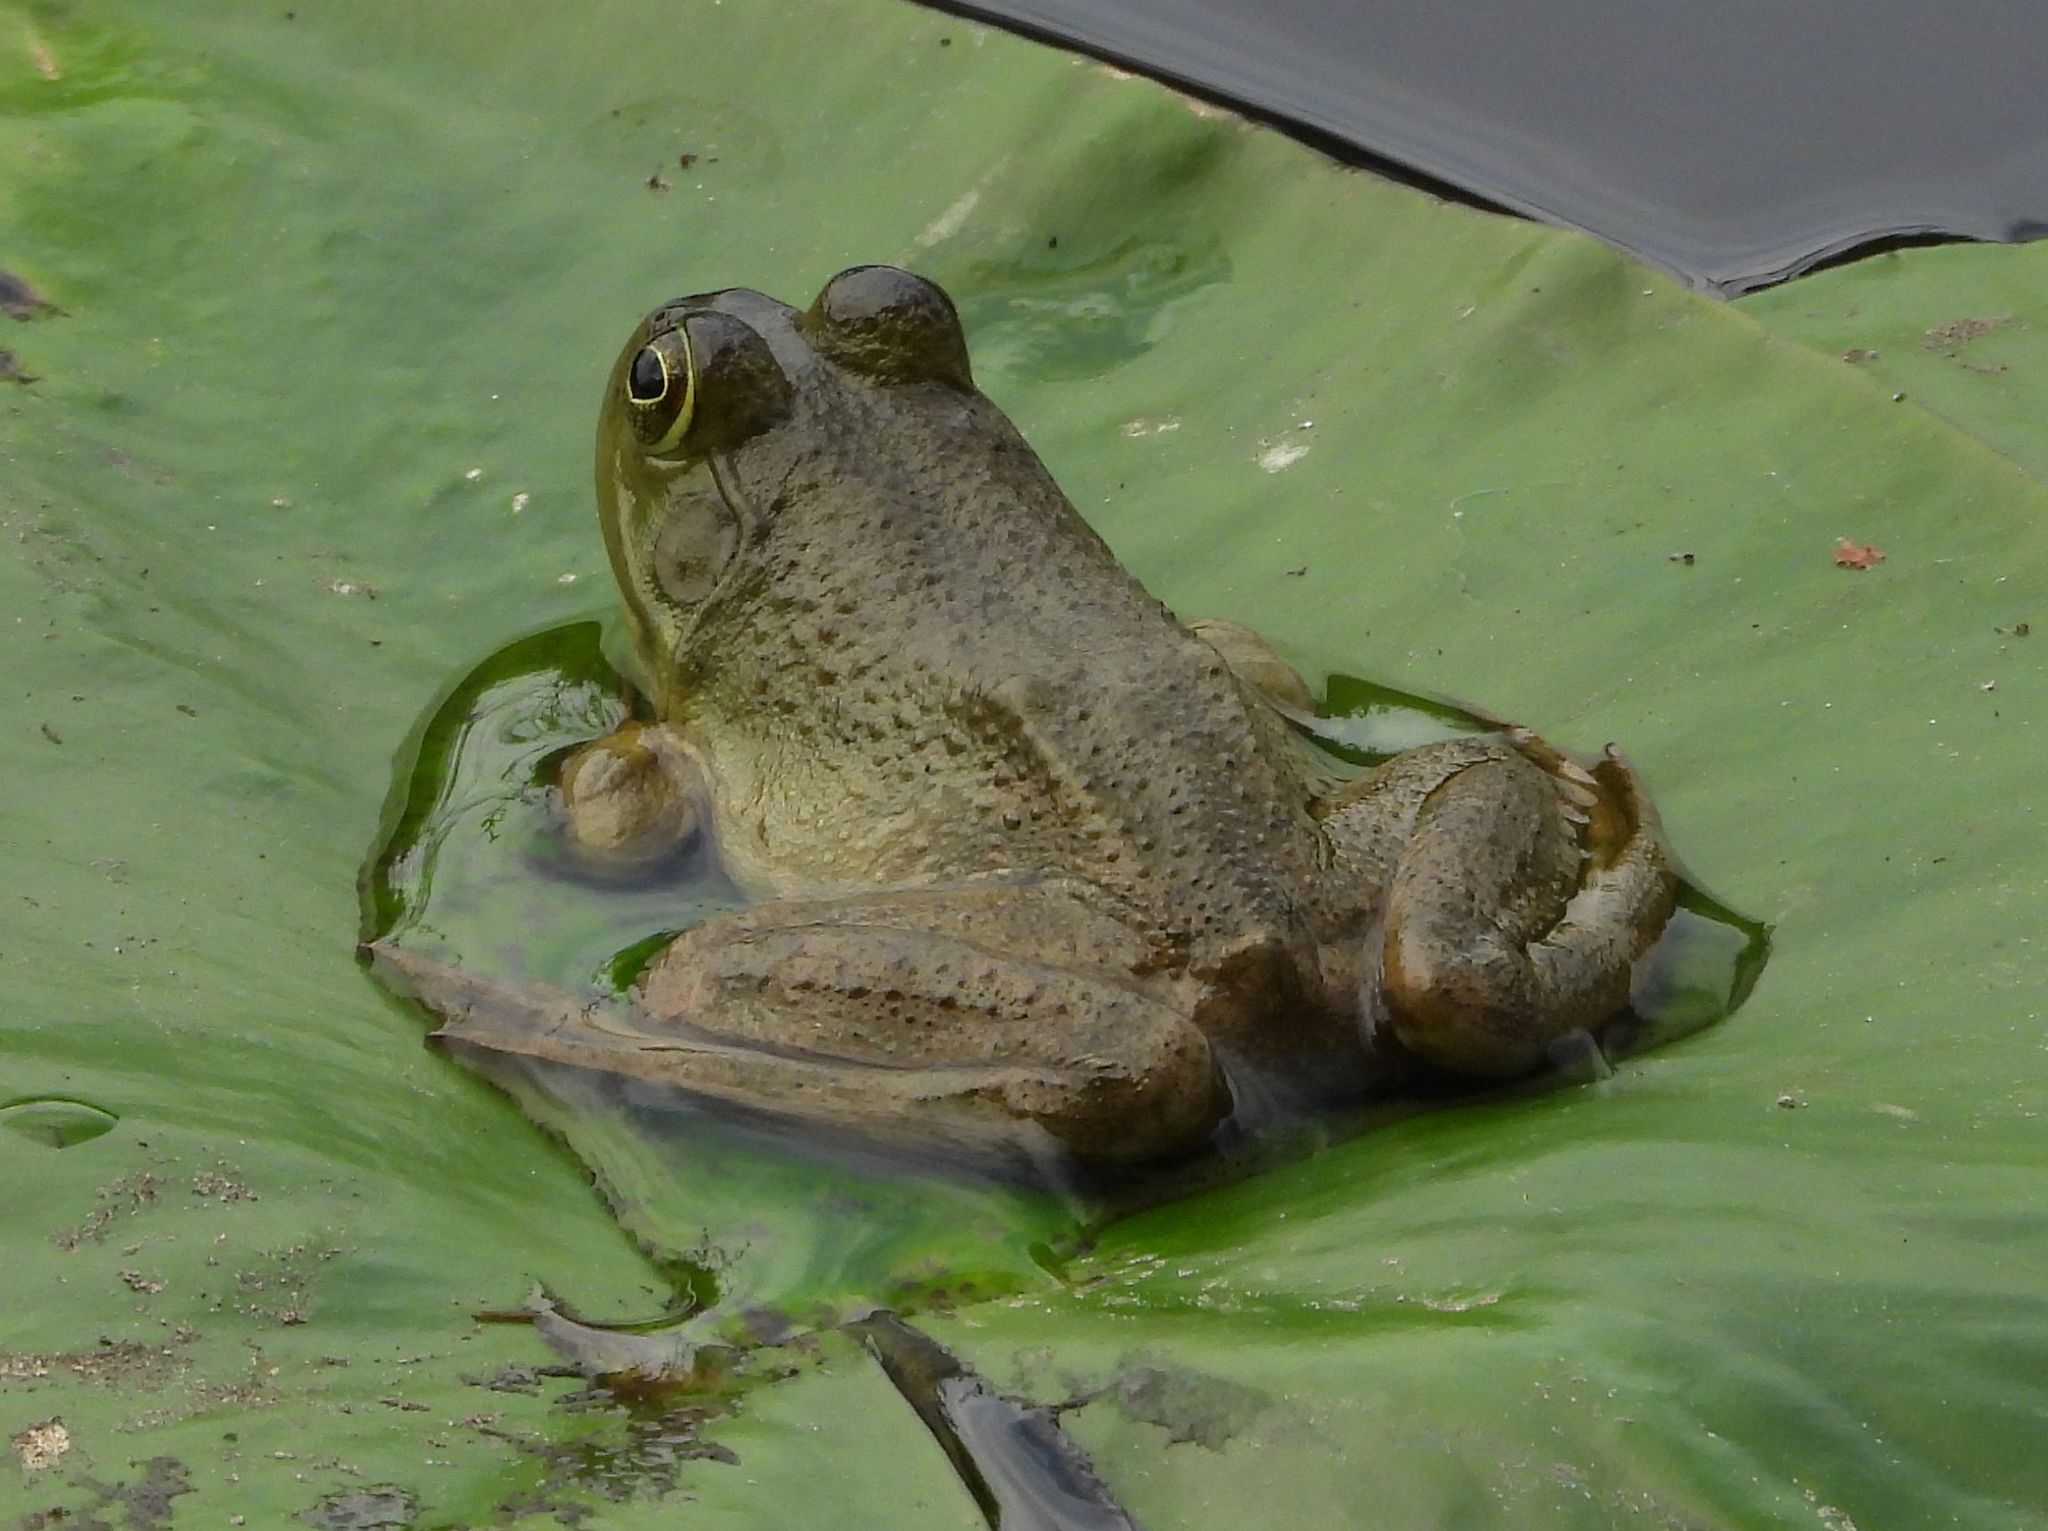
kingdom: Animalia
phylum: Chordata
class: Amphibia
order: Anura
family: Ranidae
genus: Lithobates
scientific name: Lithobates catesbeianus
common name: American bullfrog
